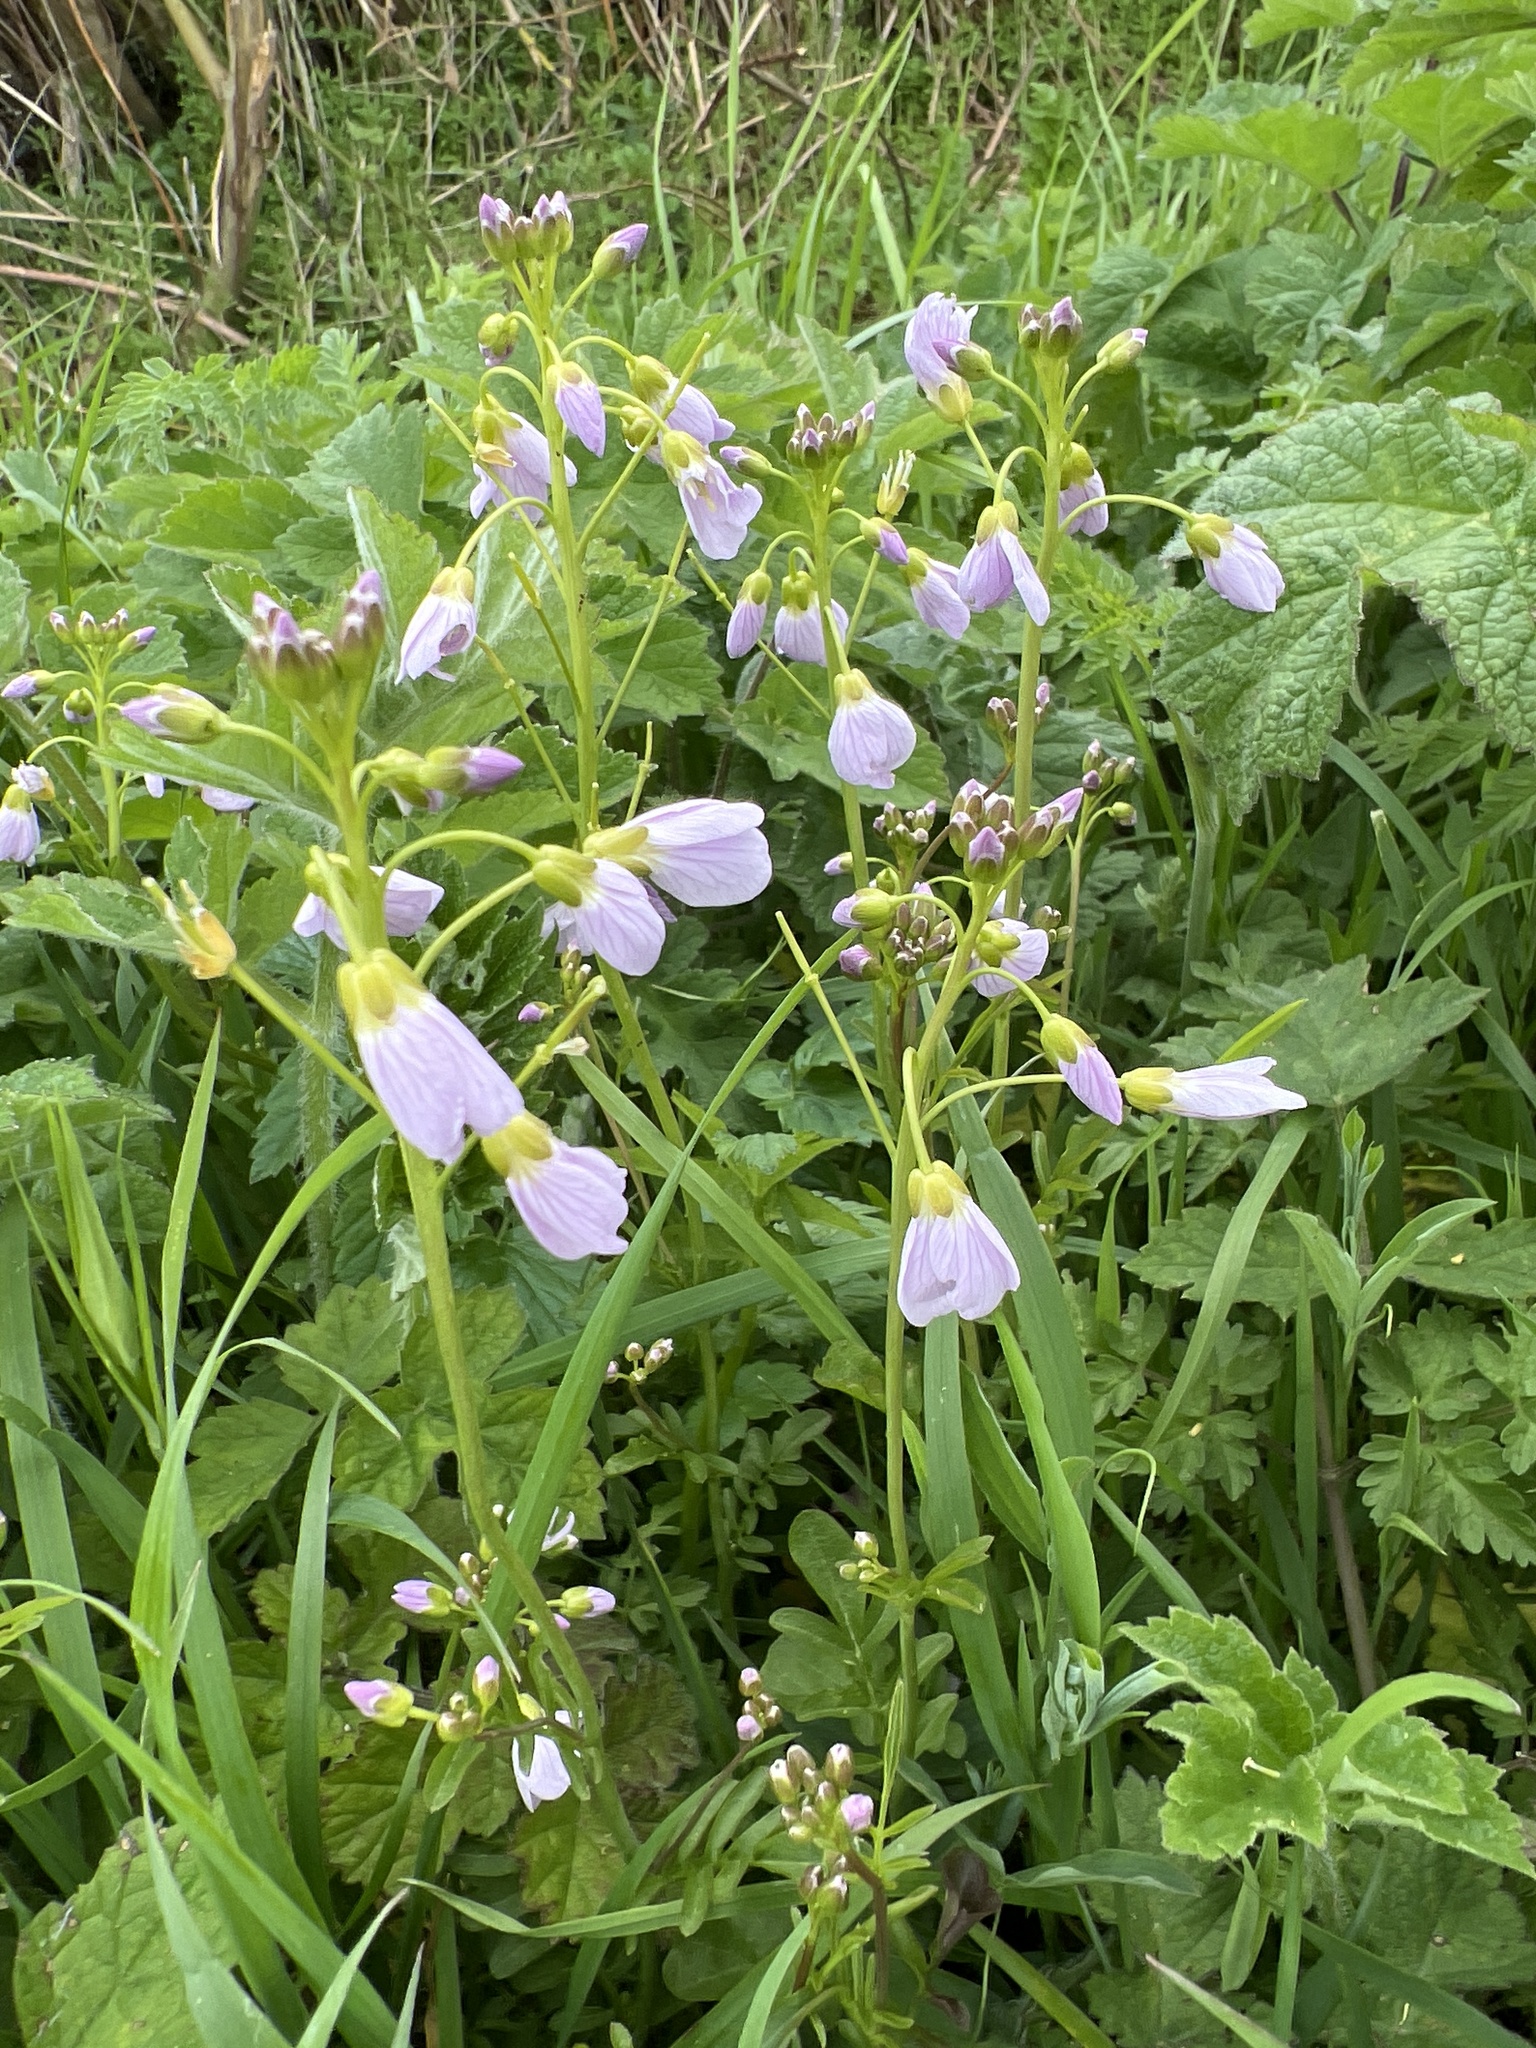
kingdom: Plantae
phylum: Tracheophyta
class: Magnoliopsida
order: Brassicales
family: Brassicaceae
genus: Cardamine
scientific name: Cardamine pratensis
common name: Cuckoo flower
